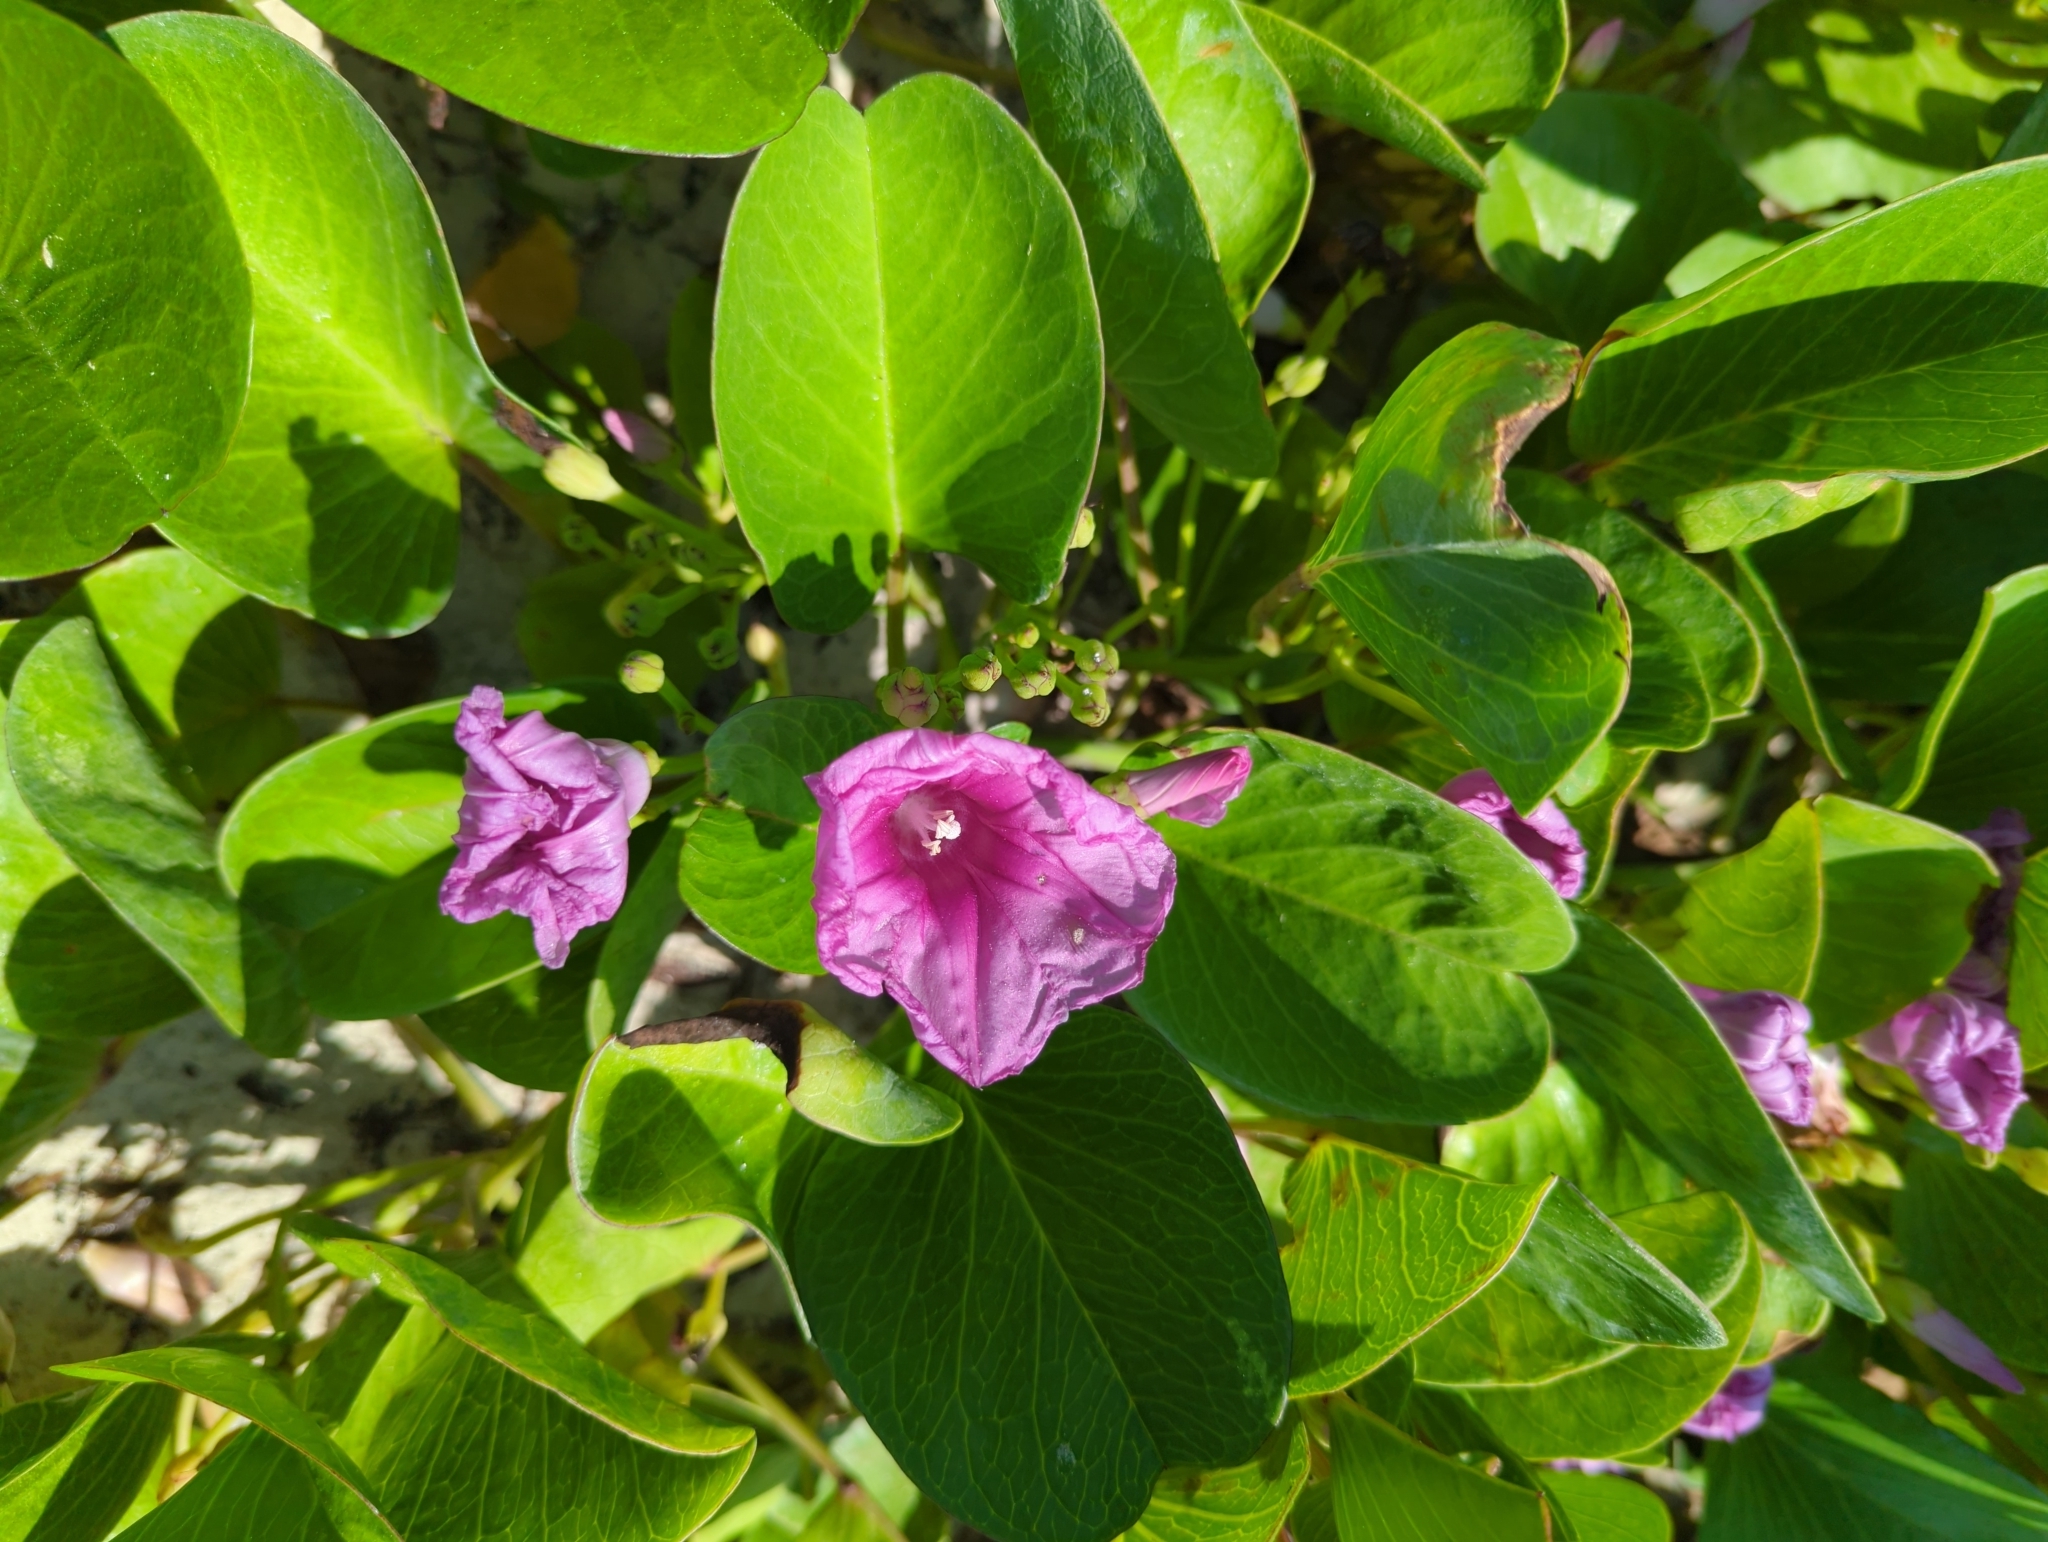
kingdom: Plantae
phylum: Tracheophyta
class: Magnoliopsida
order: Solanales
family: Convolvulaceae
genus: Ipomoea
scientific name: Ipomoea pes-caprae
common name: Beach morning glory
